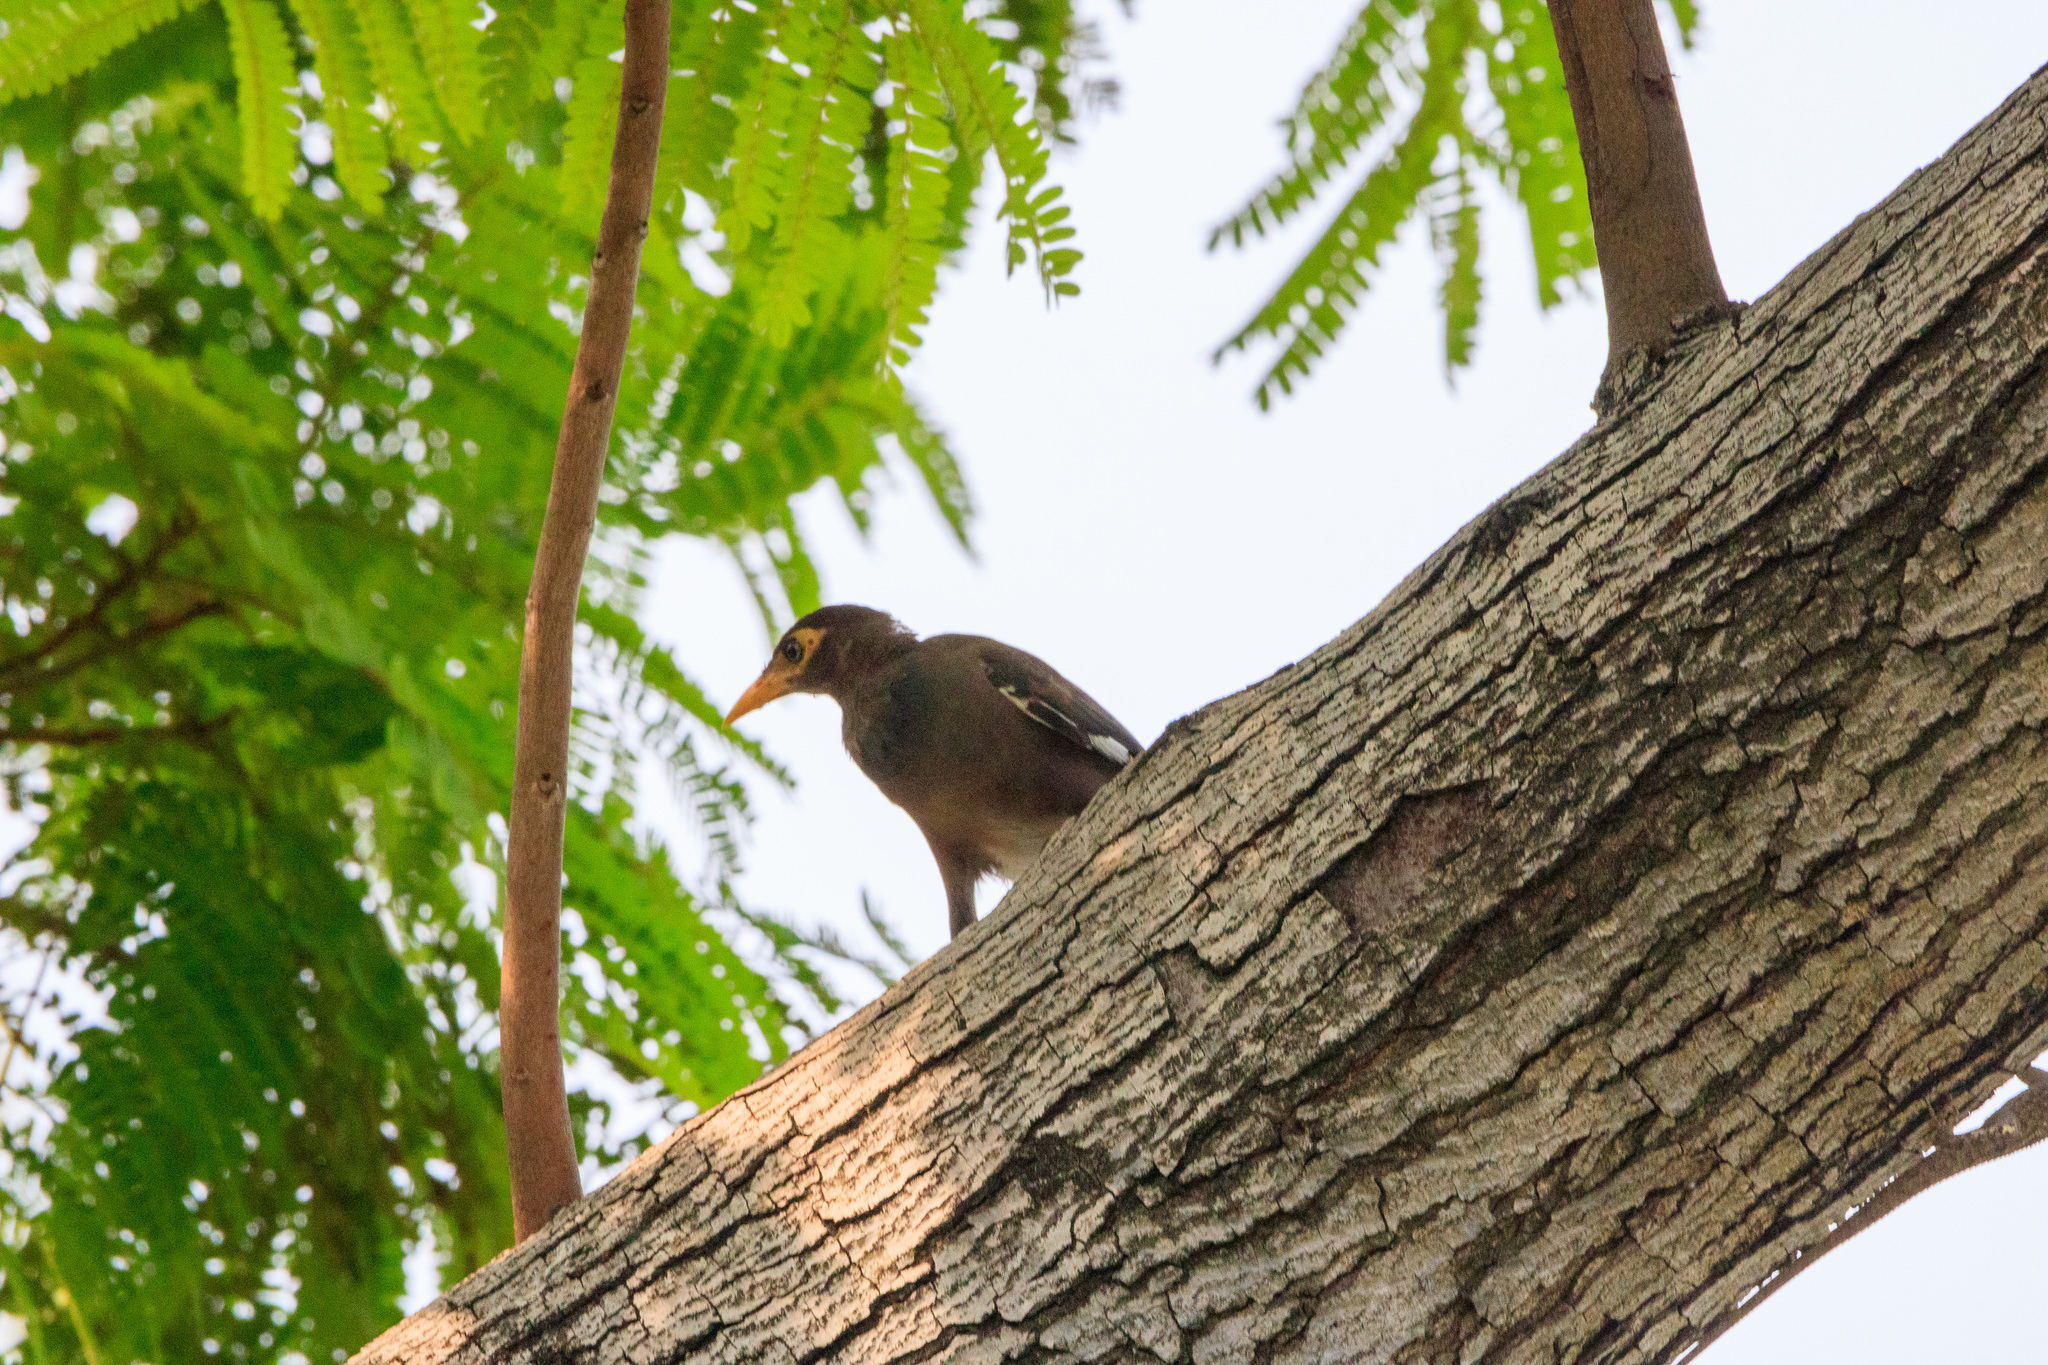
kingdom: Animalia
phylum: Chordata
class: Aves
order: Passeriformes
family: Sturnidae
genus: Acridotheres
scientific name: Acridotheres tristis
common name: Common myna
